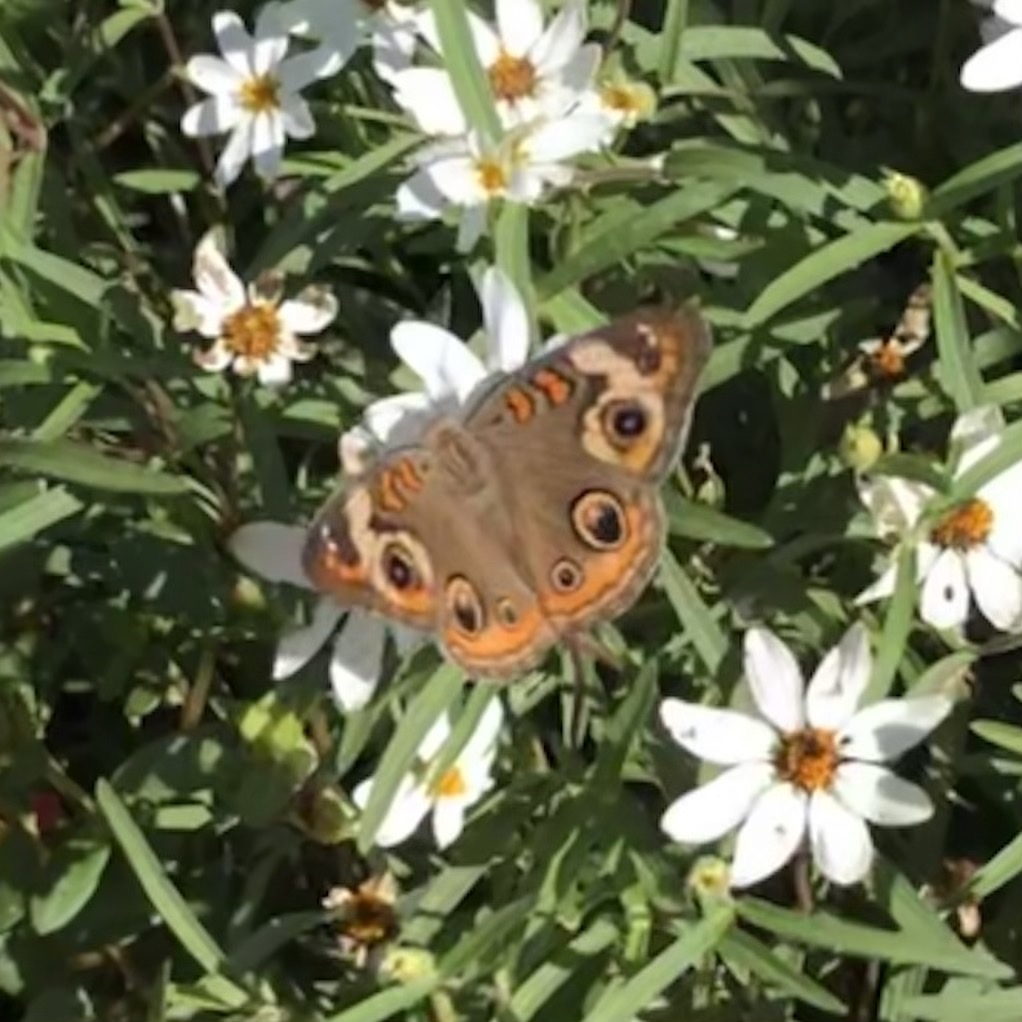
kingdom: Animalia
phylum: Arthropoda
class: Insecta
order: Lepidoptera
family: Nymphalidae
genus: Junonia
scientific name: Junonia coenia
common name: Common buckeye
